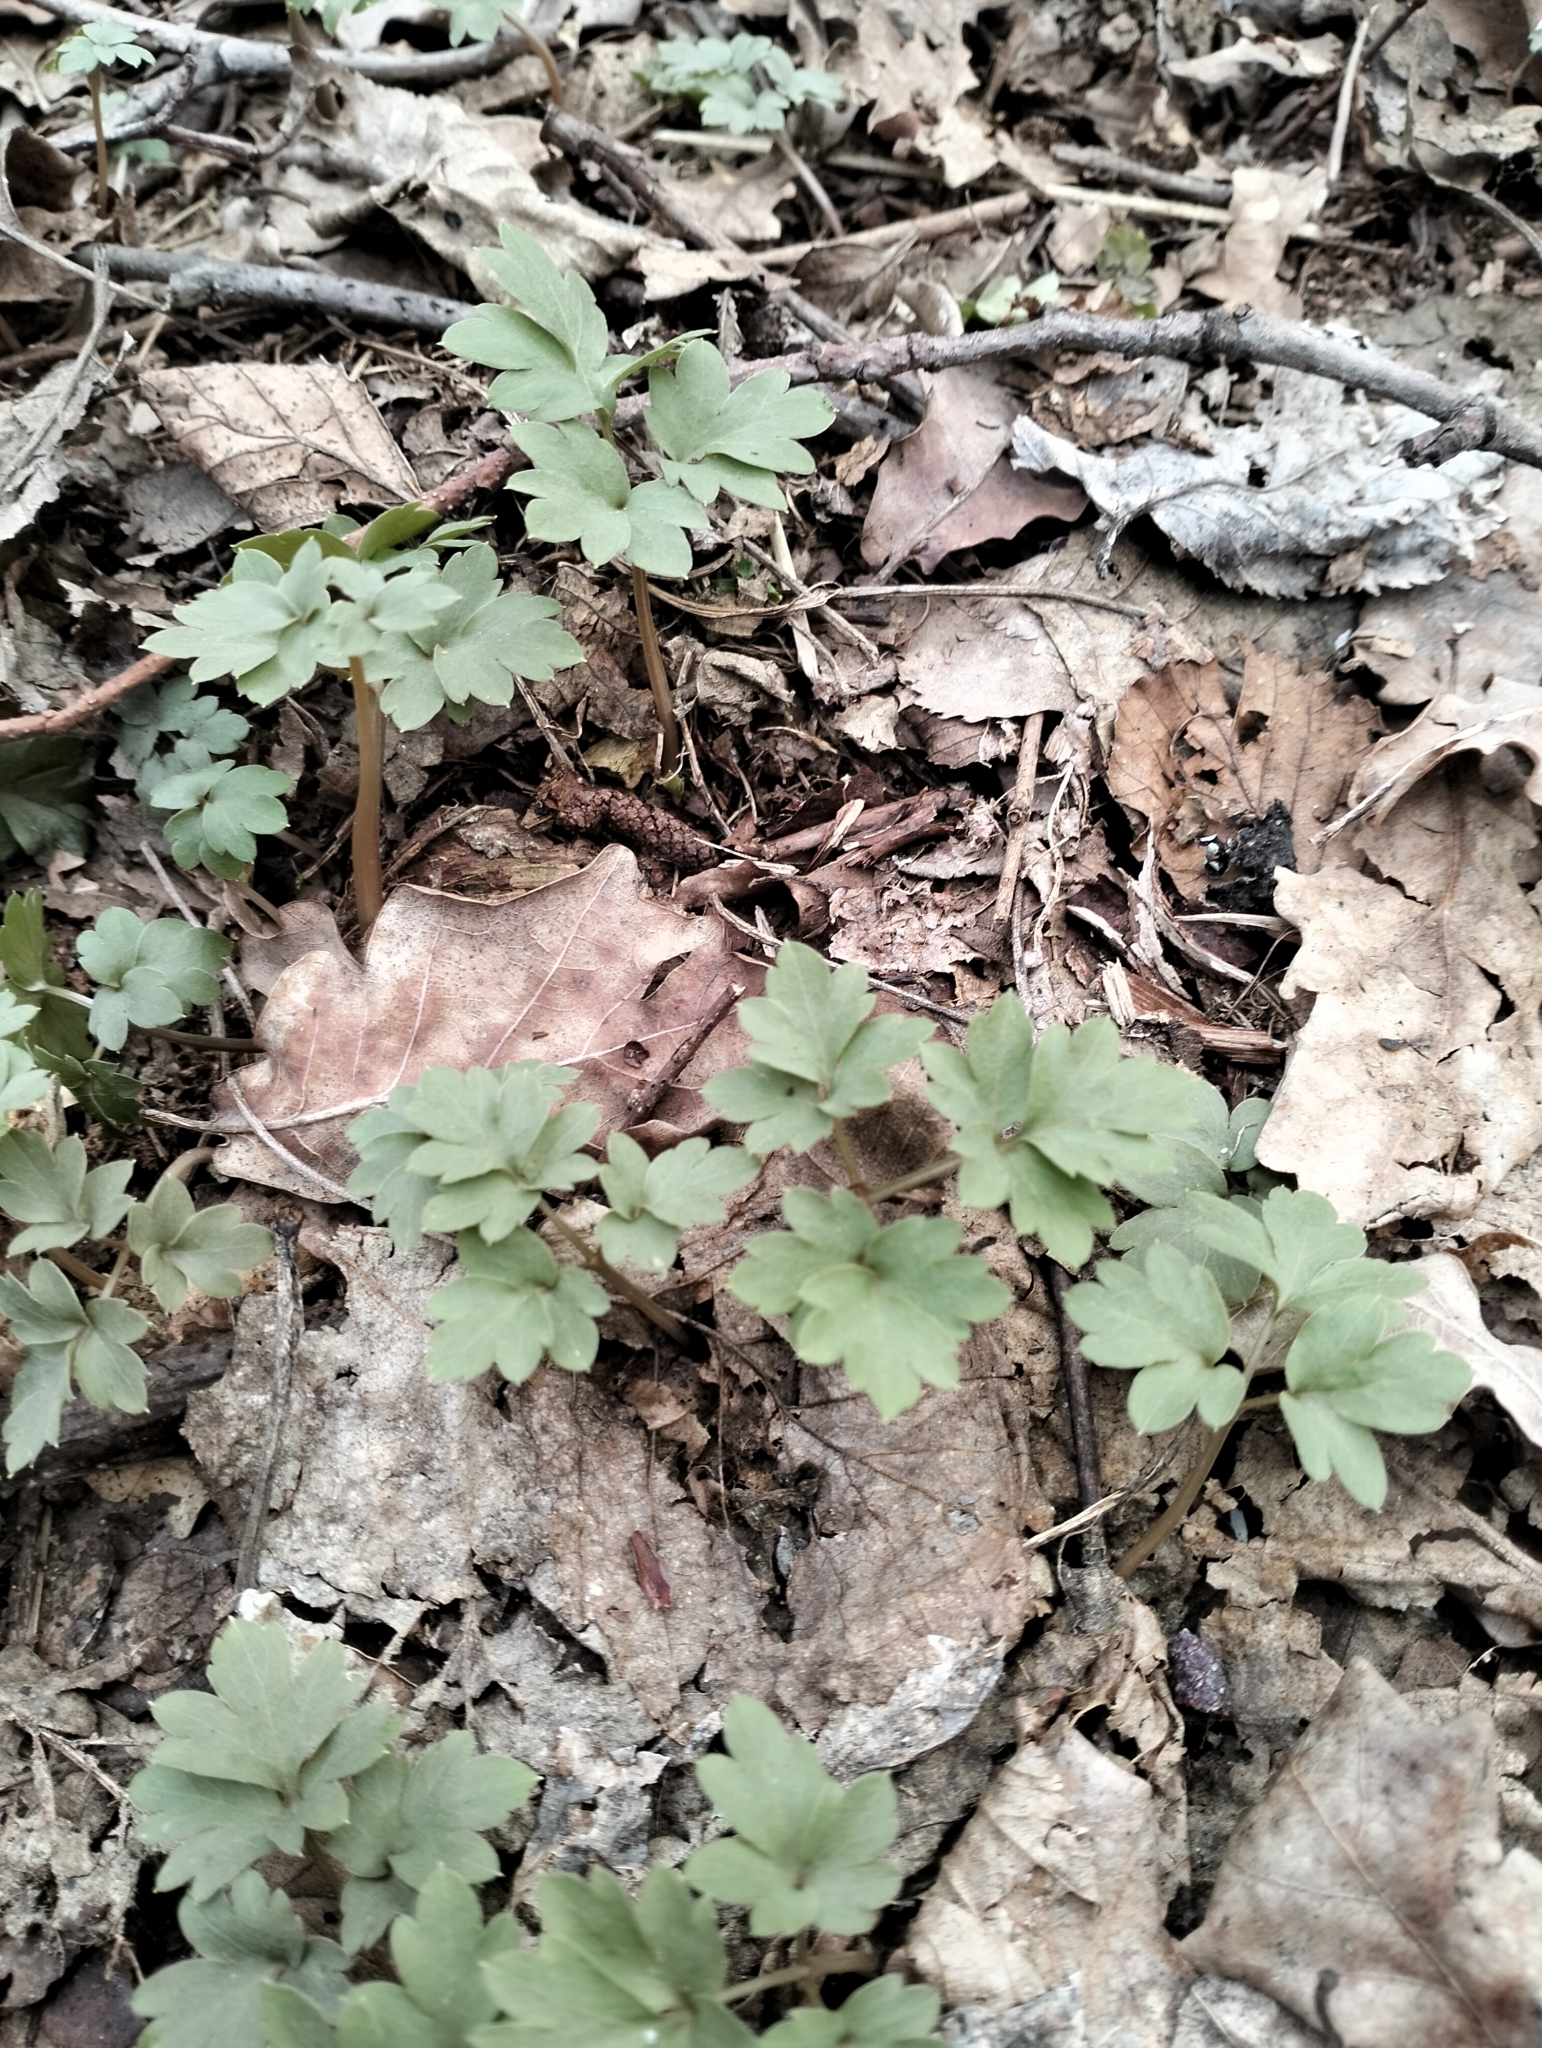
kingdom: Plantae
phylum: Tracheophyta
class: Magnoliopsida
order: Dipsacales
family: Viburnaceae
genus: Adoxa
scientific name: Adoxa moschatellina
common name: Moschatel
